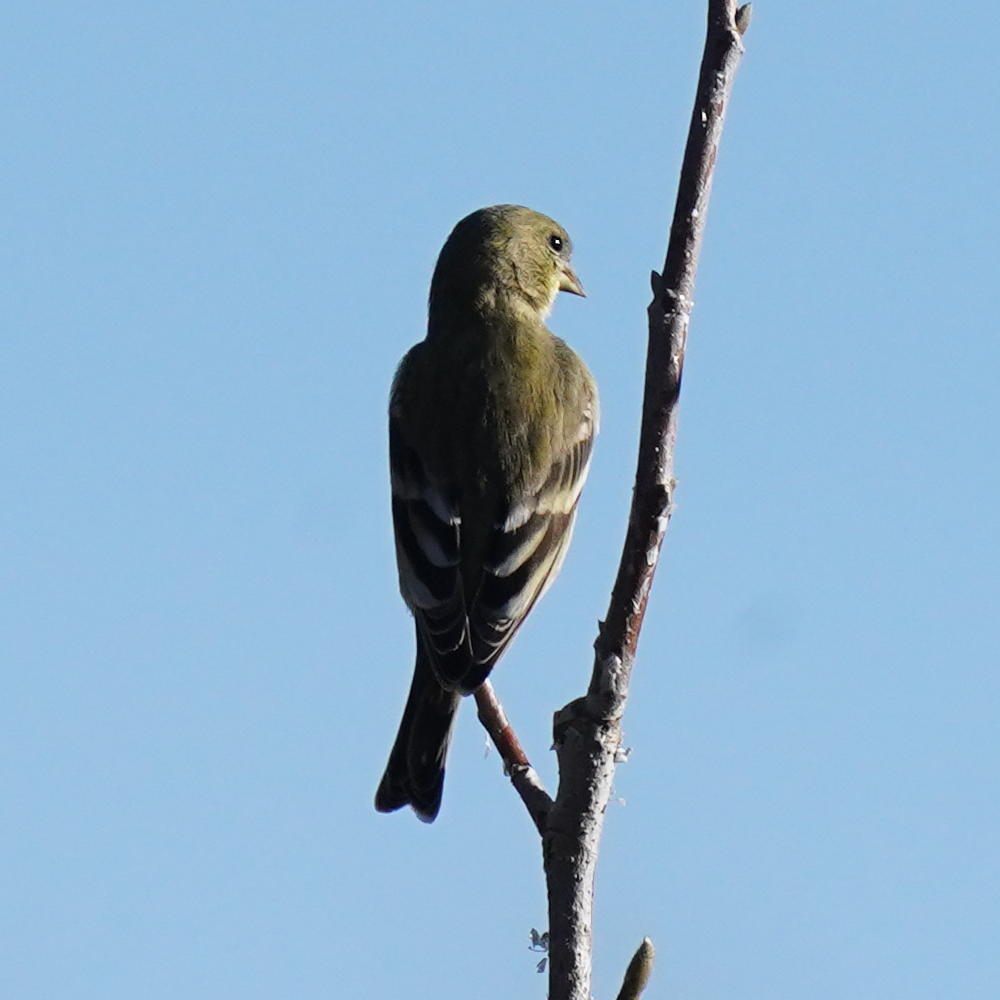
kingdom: Animalia
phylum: Chordata
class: Aves
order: Passeriformes
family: Fringillidae
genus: Spinus
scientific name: Spinus psaltria
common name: Lesser goldfinch
